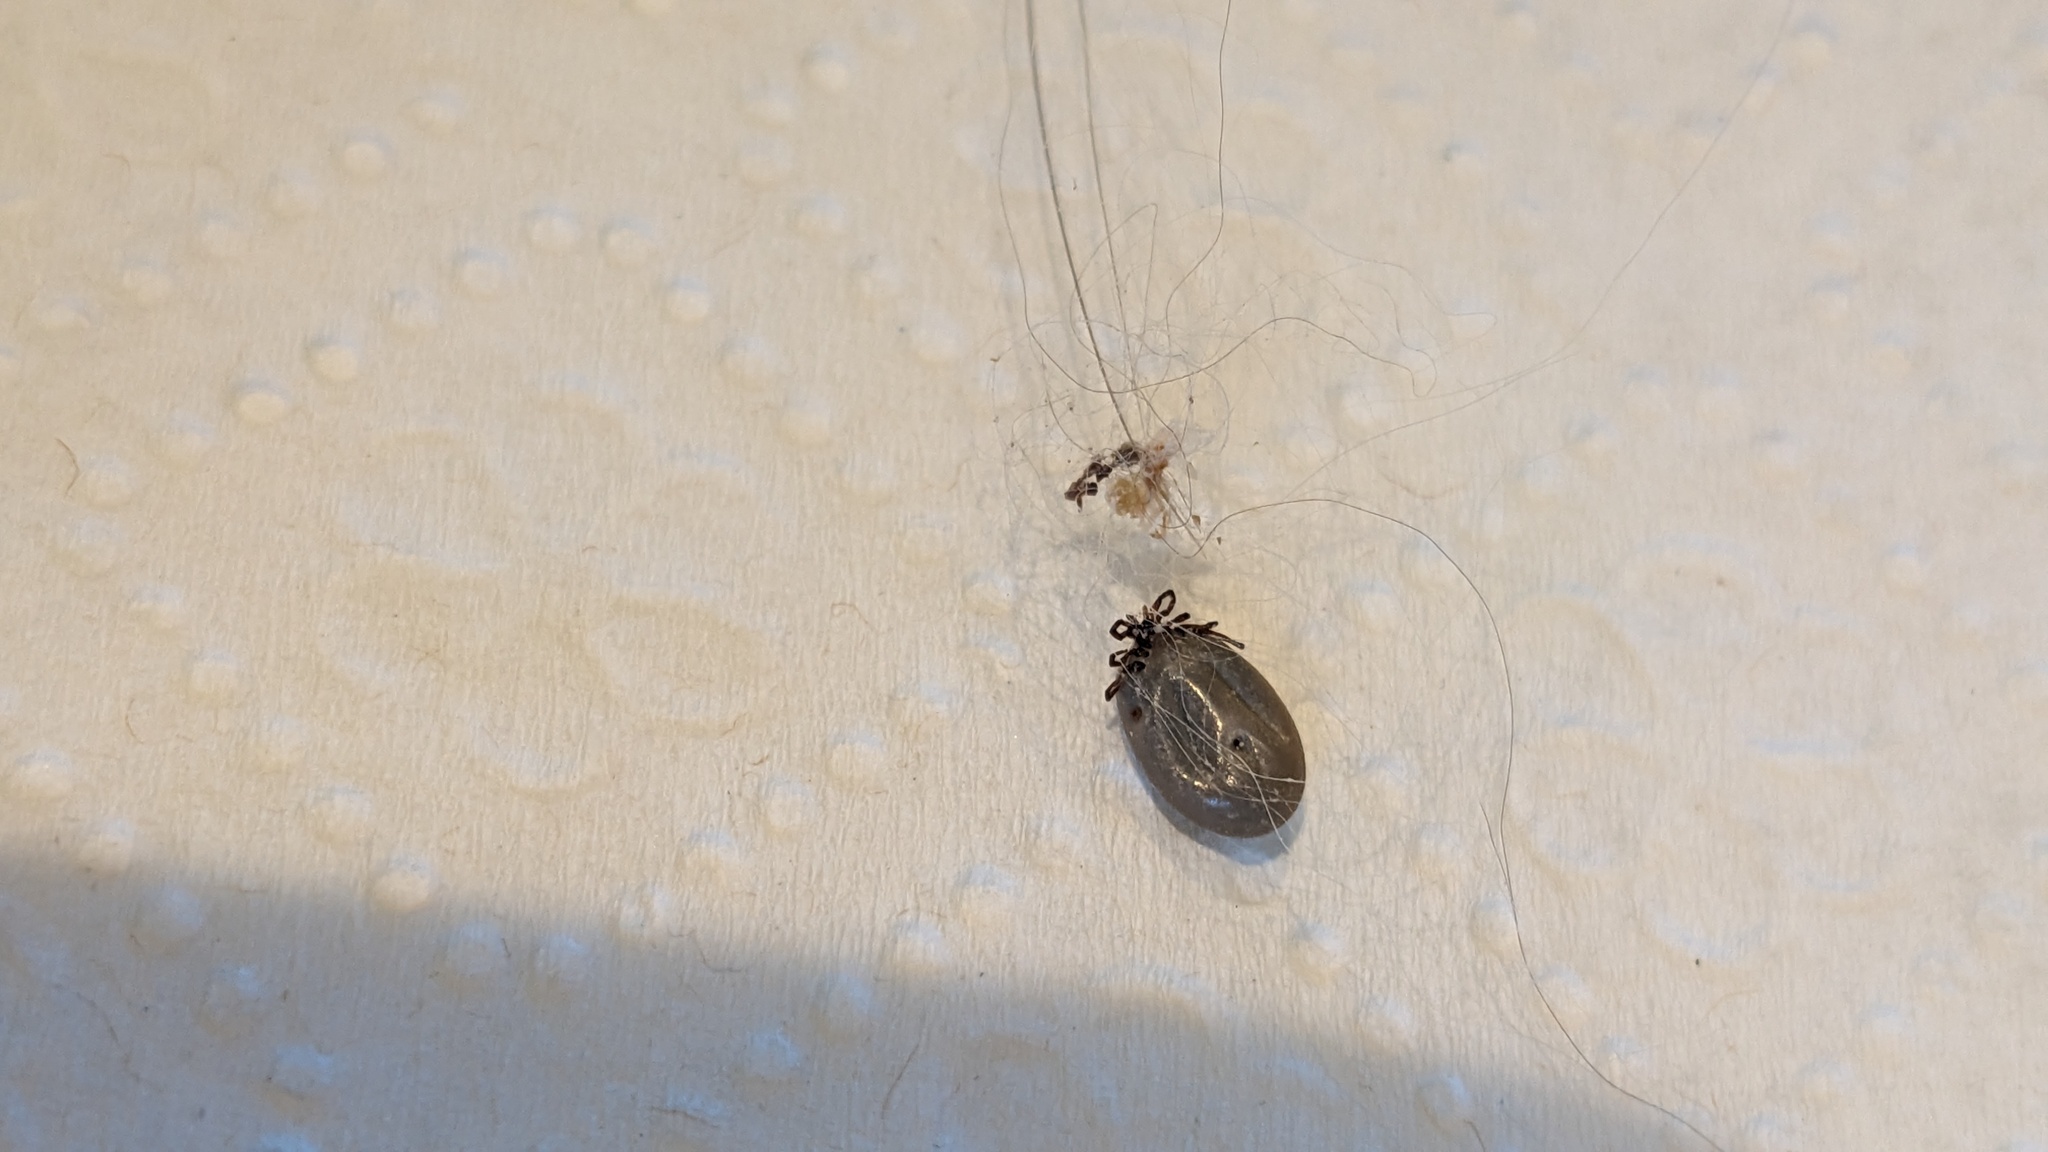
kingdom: Animalia
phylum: Arthropoda
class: Arachnida
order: Ixodida
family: Ixodidae
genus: Ixodes
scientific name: Ixodes scapularis
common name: Black legged tick
